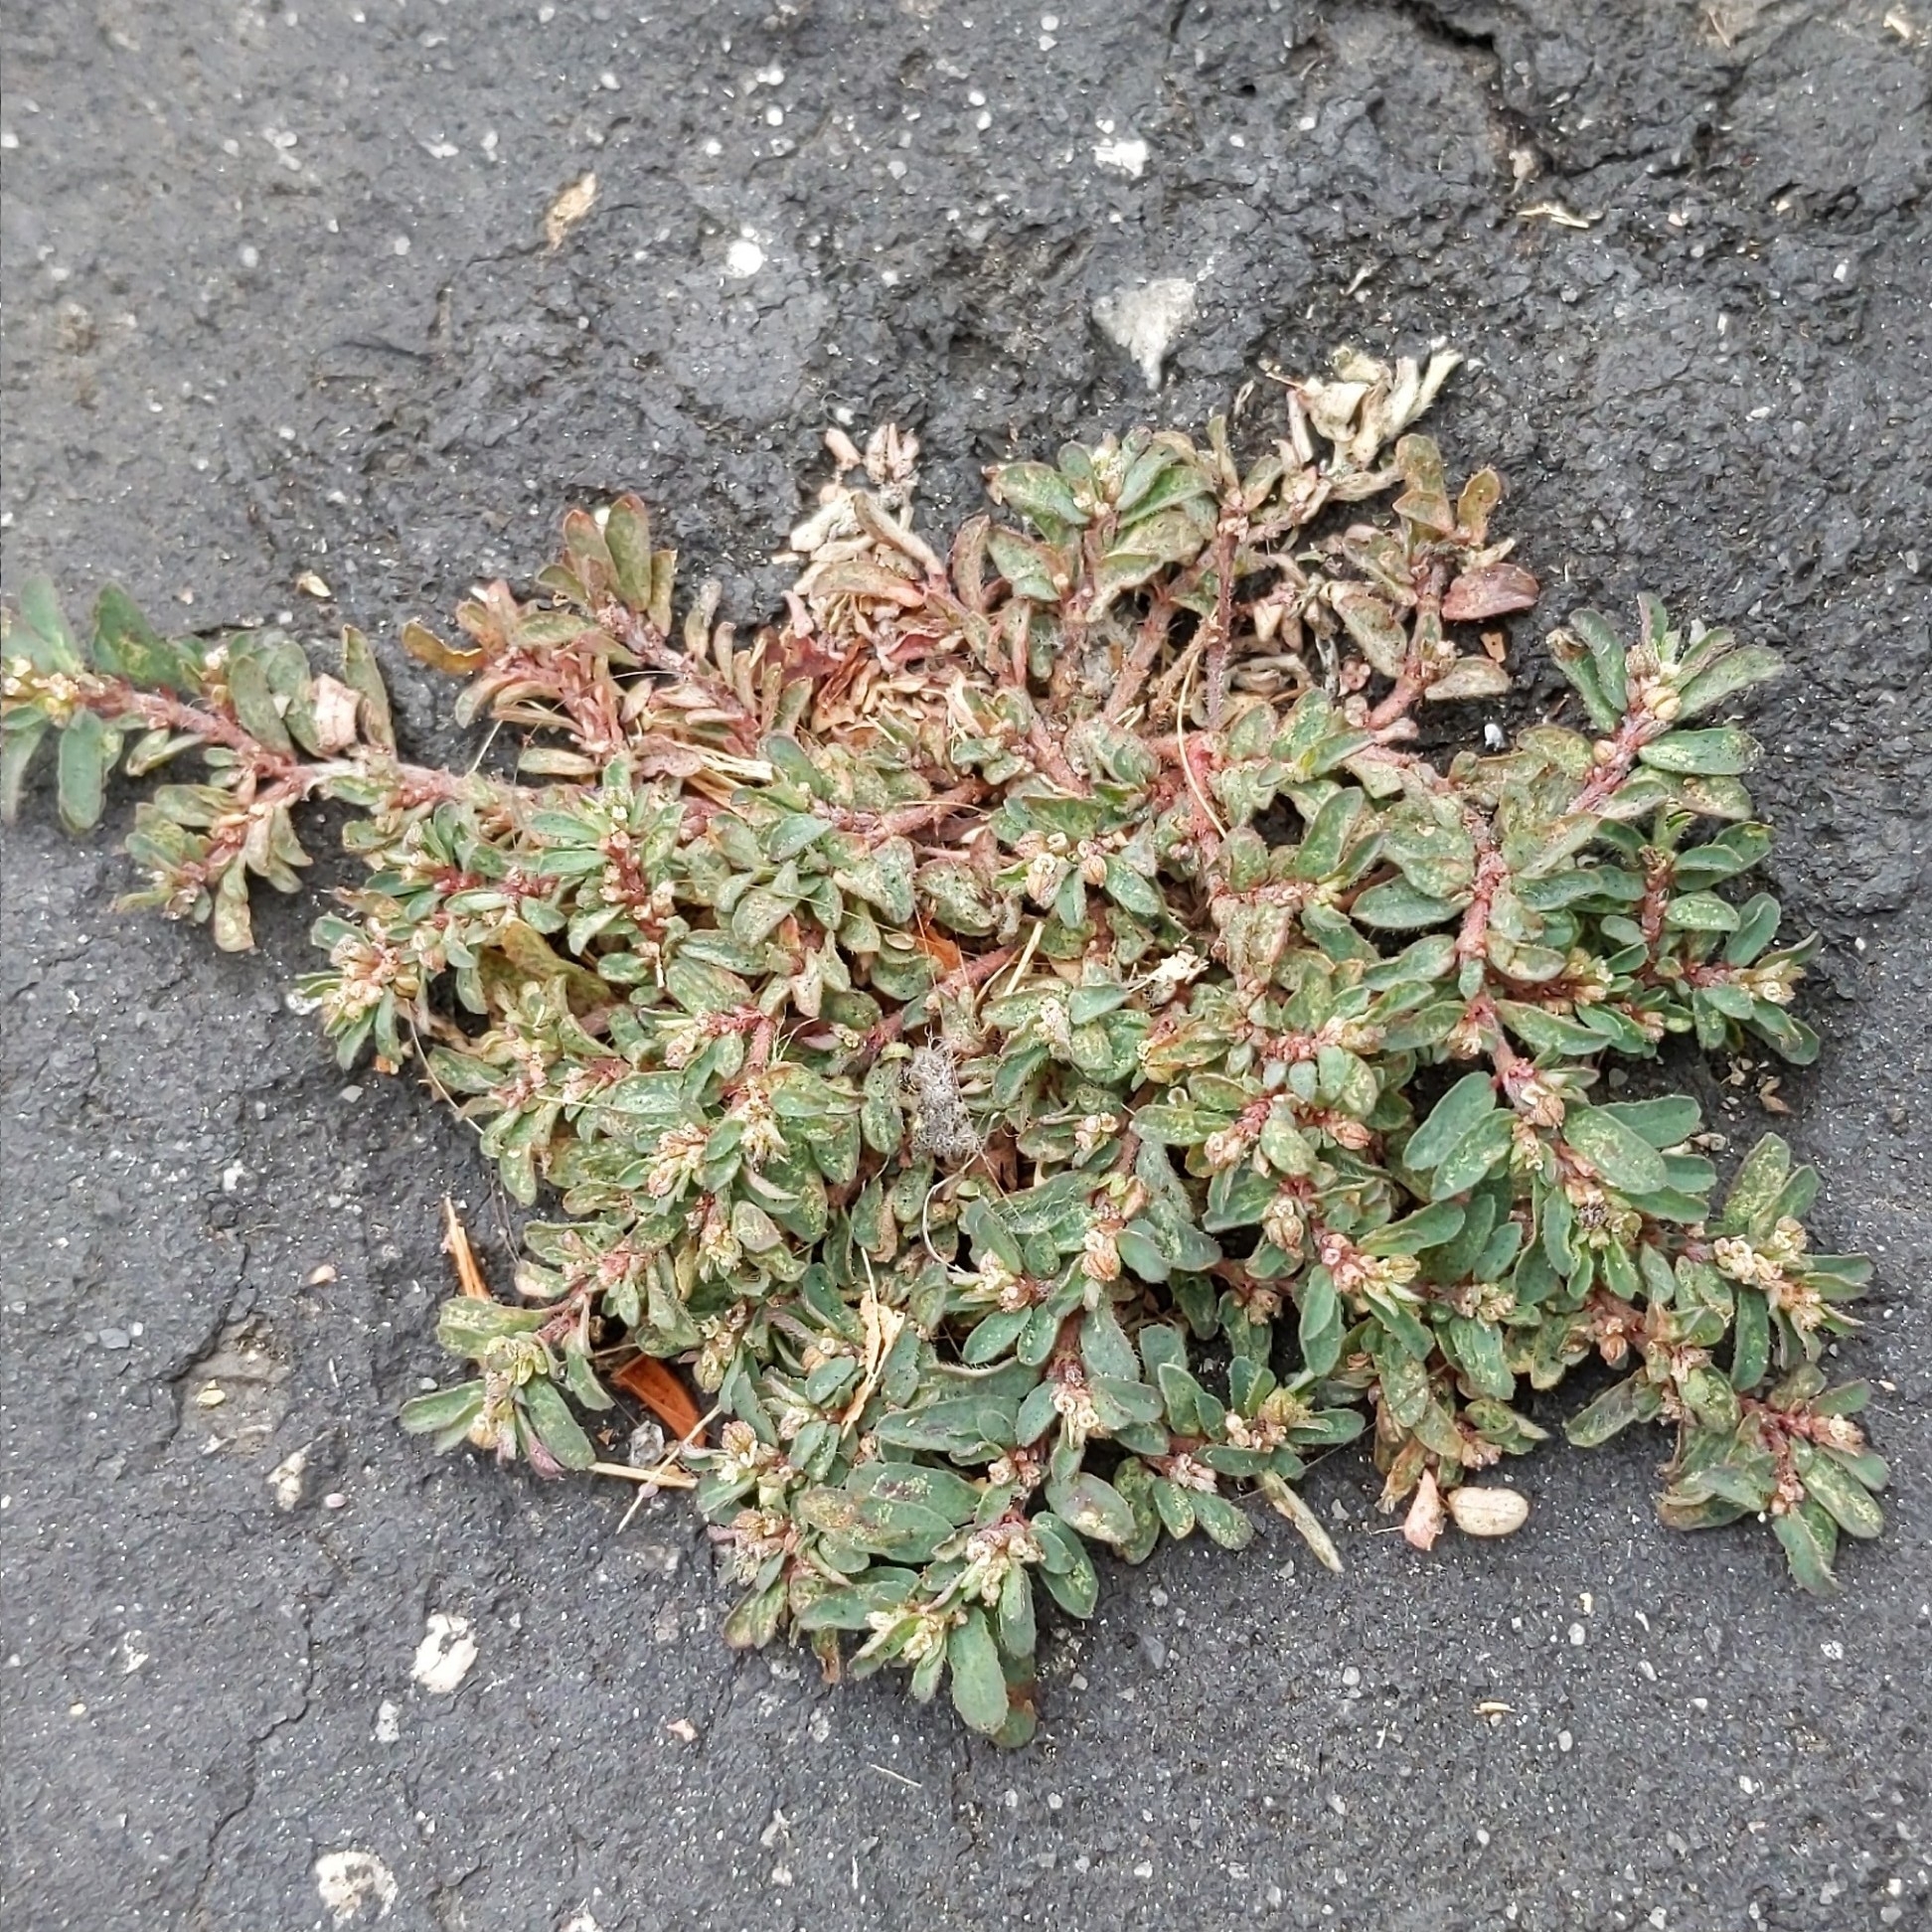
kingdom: Plantae
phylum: Tracheophyta
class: Magnoliopsida
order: Malpighiales
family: Euphorbiaceae
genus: Euphorbia
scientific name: Euphorbia maculata
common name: Spotted spurge
